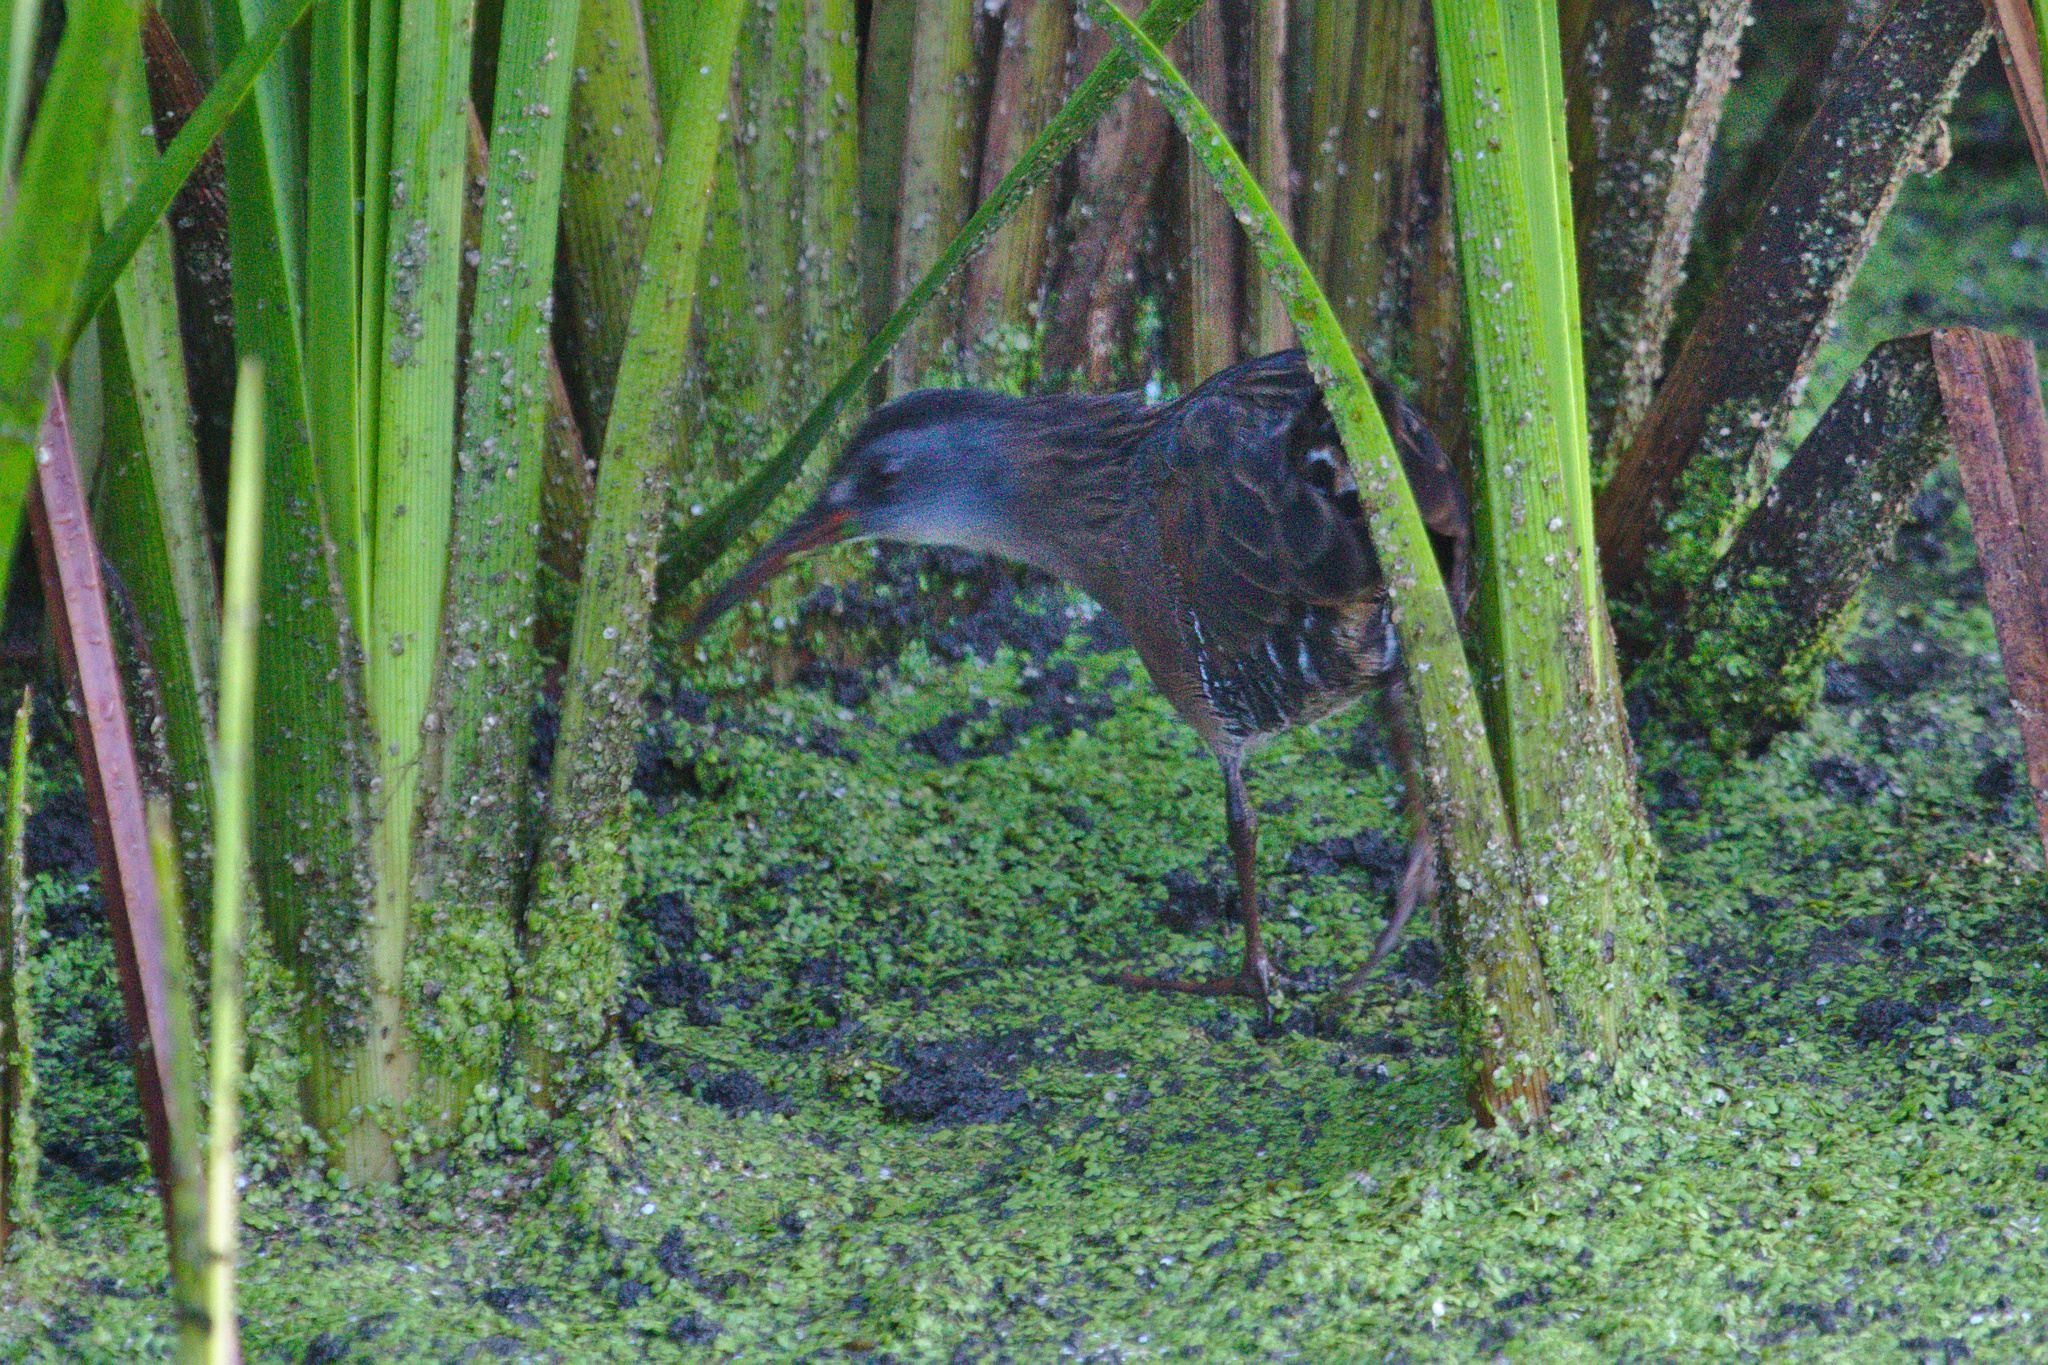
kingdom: Animalia
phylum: Chordata
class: Aves
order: Gruiformes
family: Rallidae
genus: Rallus
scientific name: Rallus limicola
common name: Virginia rail
